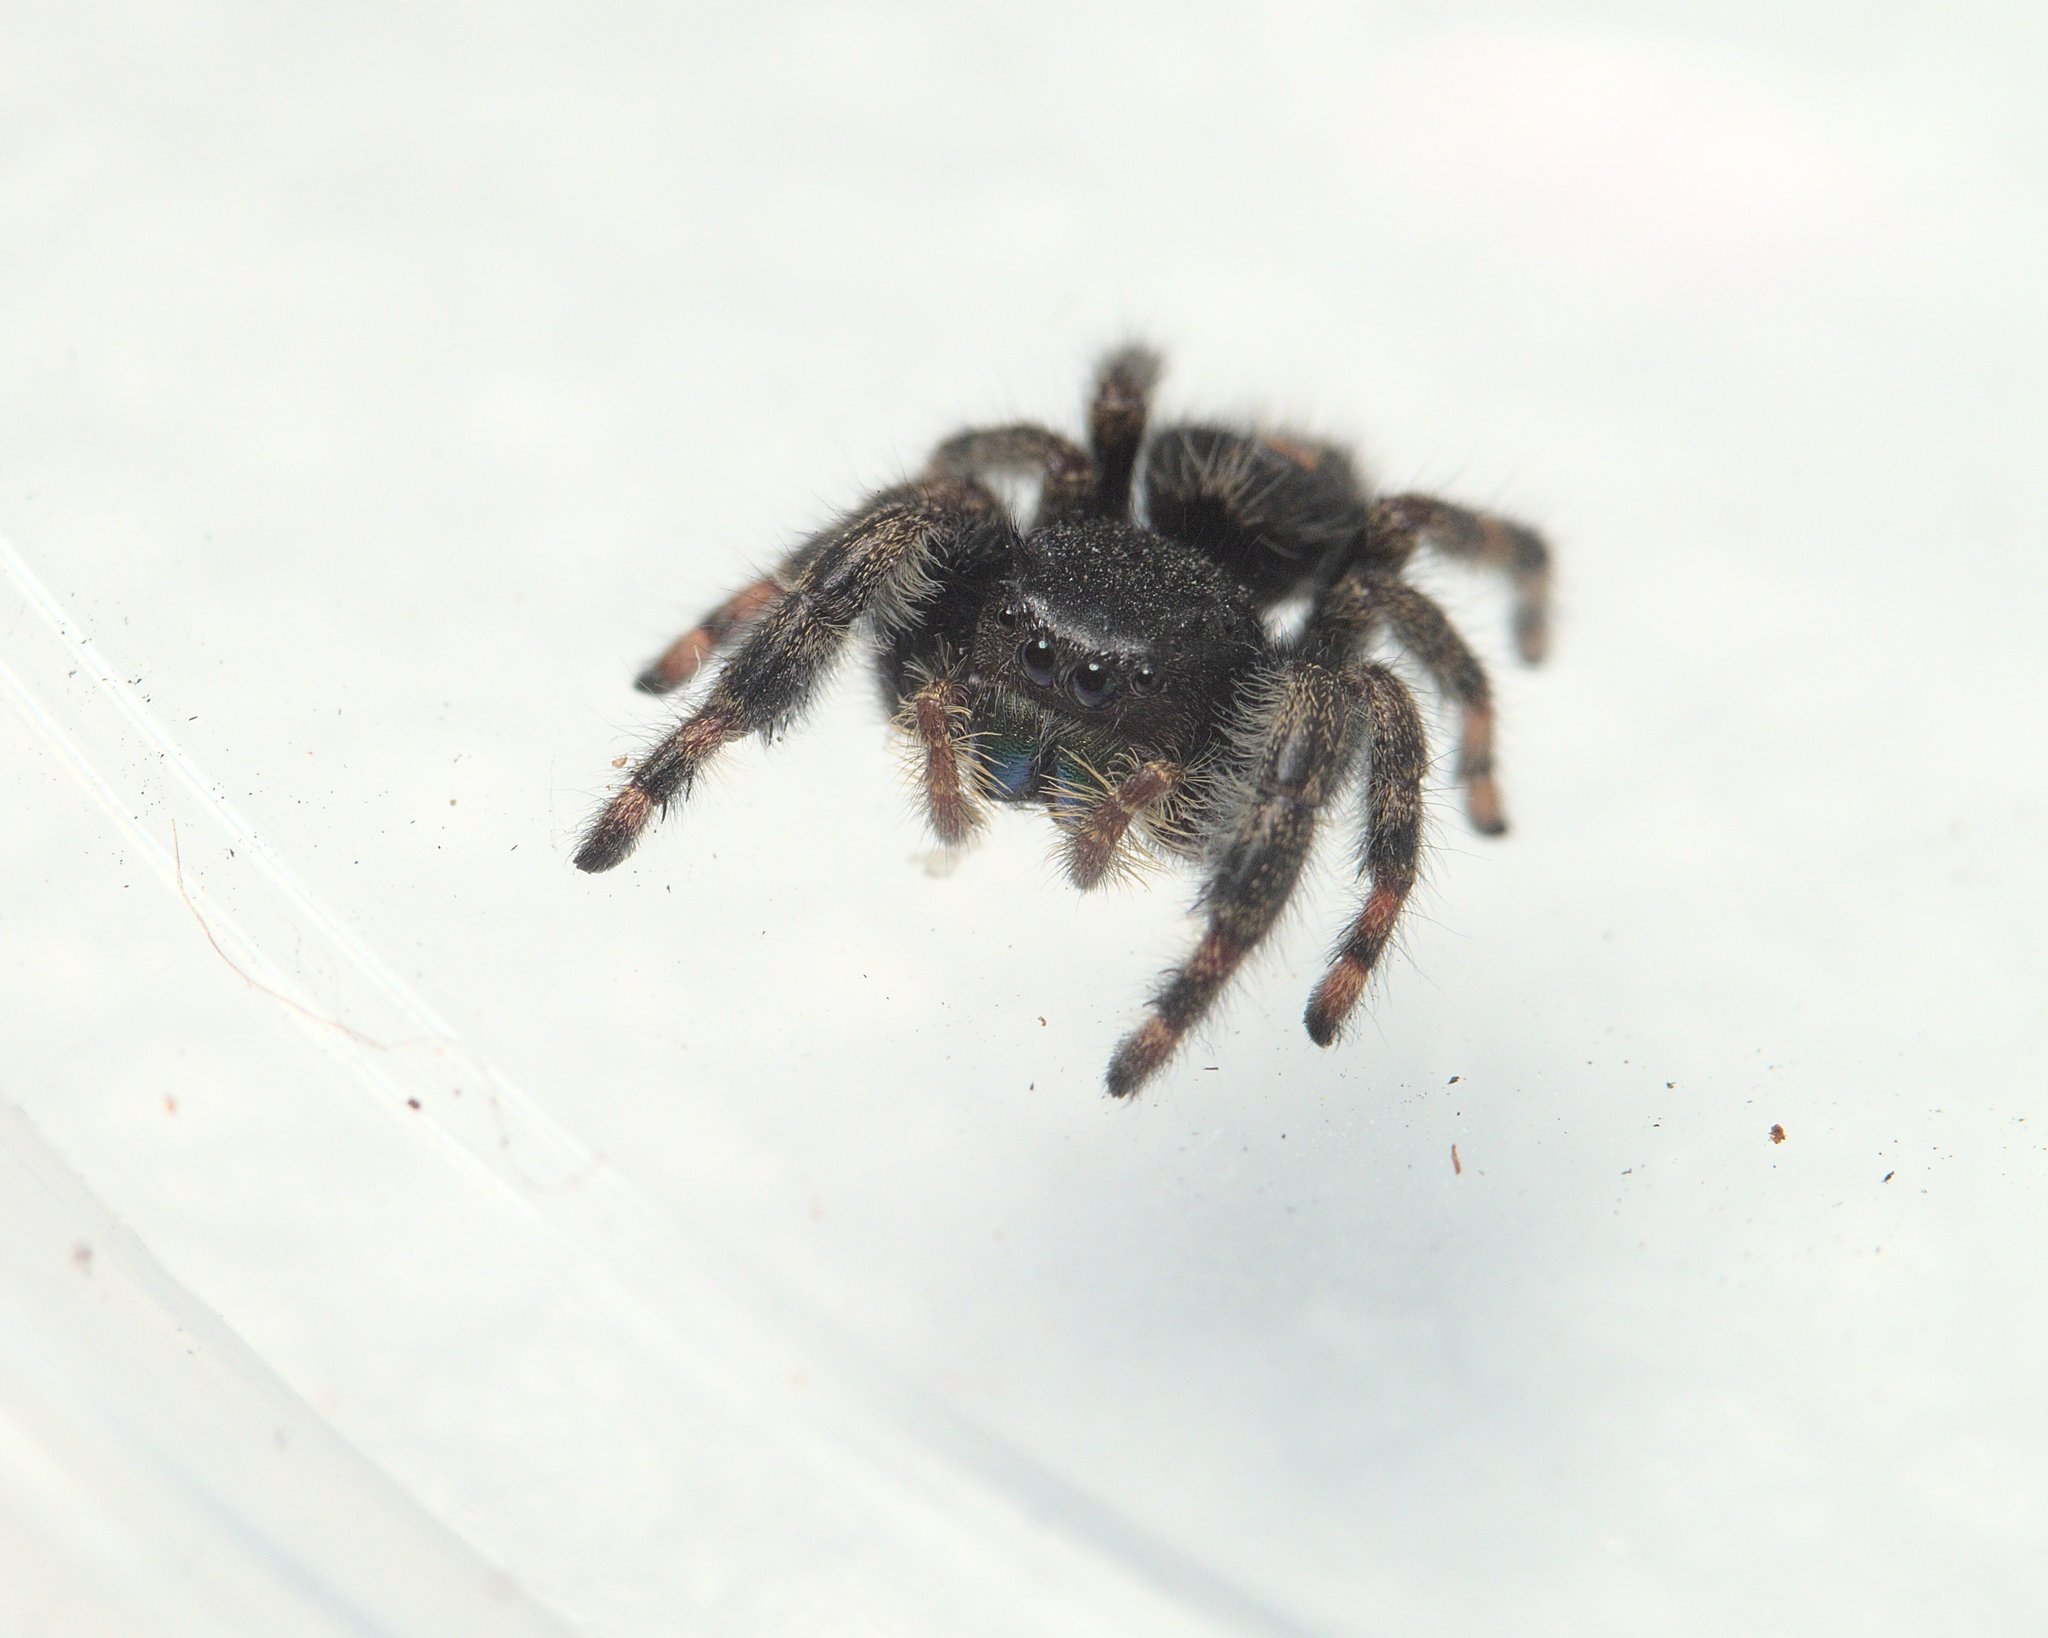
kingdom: Animalia
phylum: Arthropoda
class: Arachnida
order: Araneae
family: Salticidae
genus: Phidippus
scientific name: Phidippus audax
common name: Bold jumper
